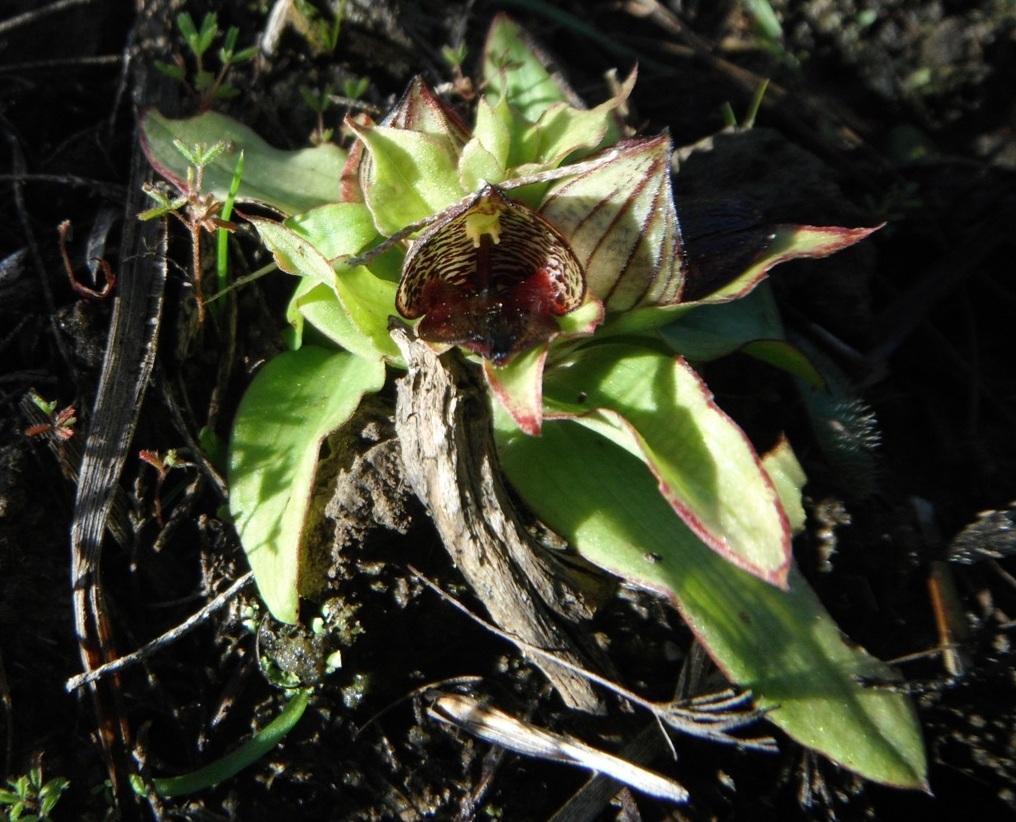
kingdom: Plantae
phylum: Tracheophyta
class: Liliopsida
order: Asparagales
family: Orchidaceae
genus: Satyrium
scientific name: Satyrium pumilum
